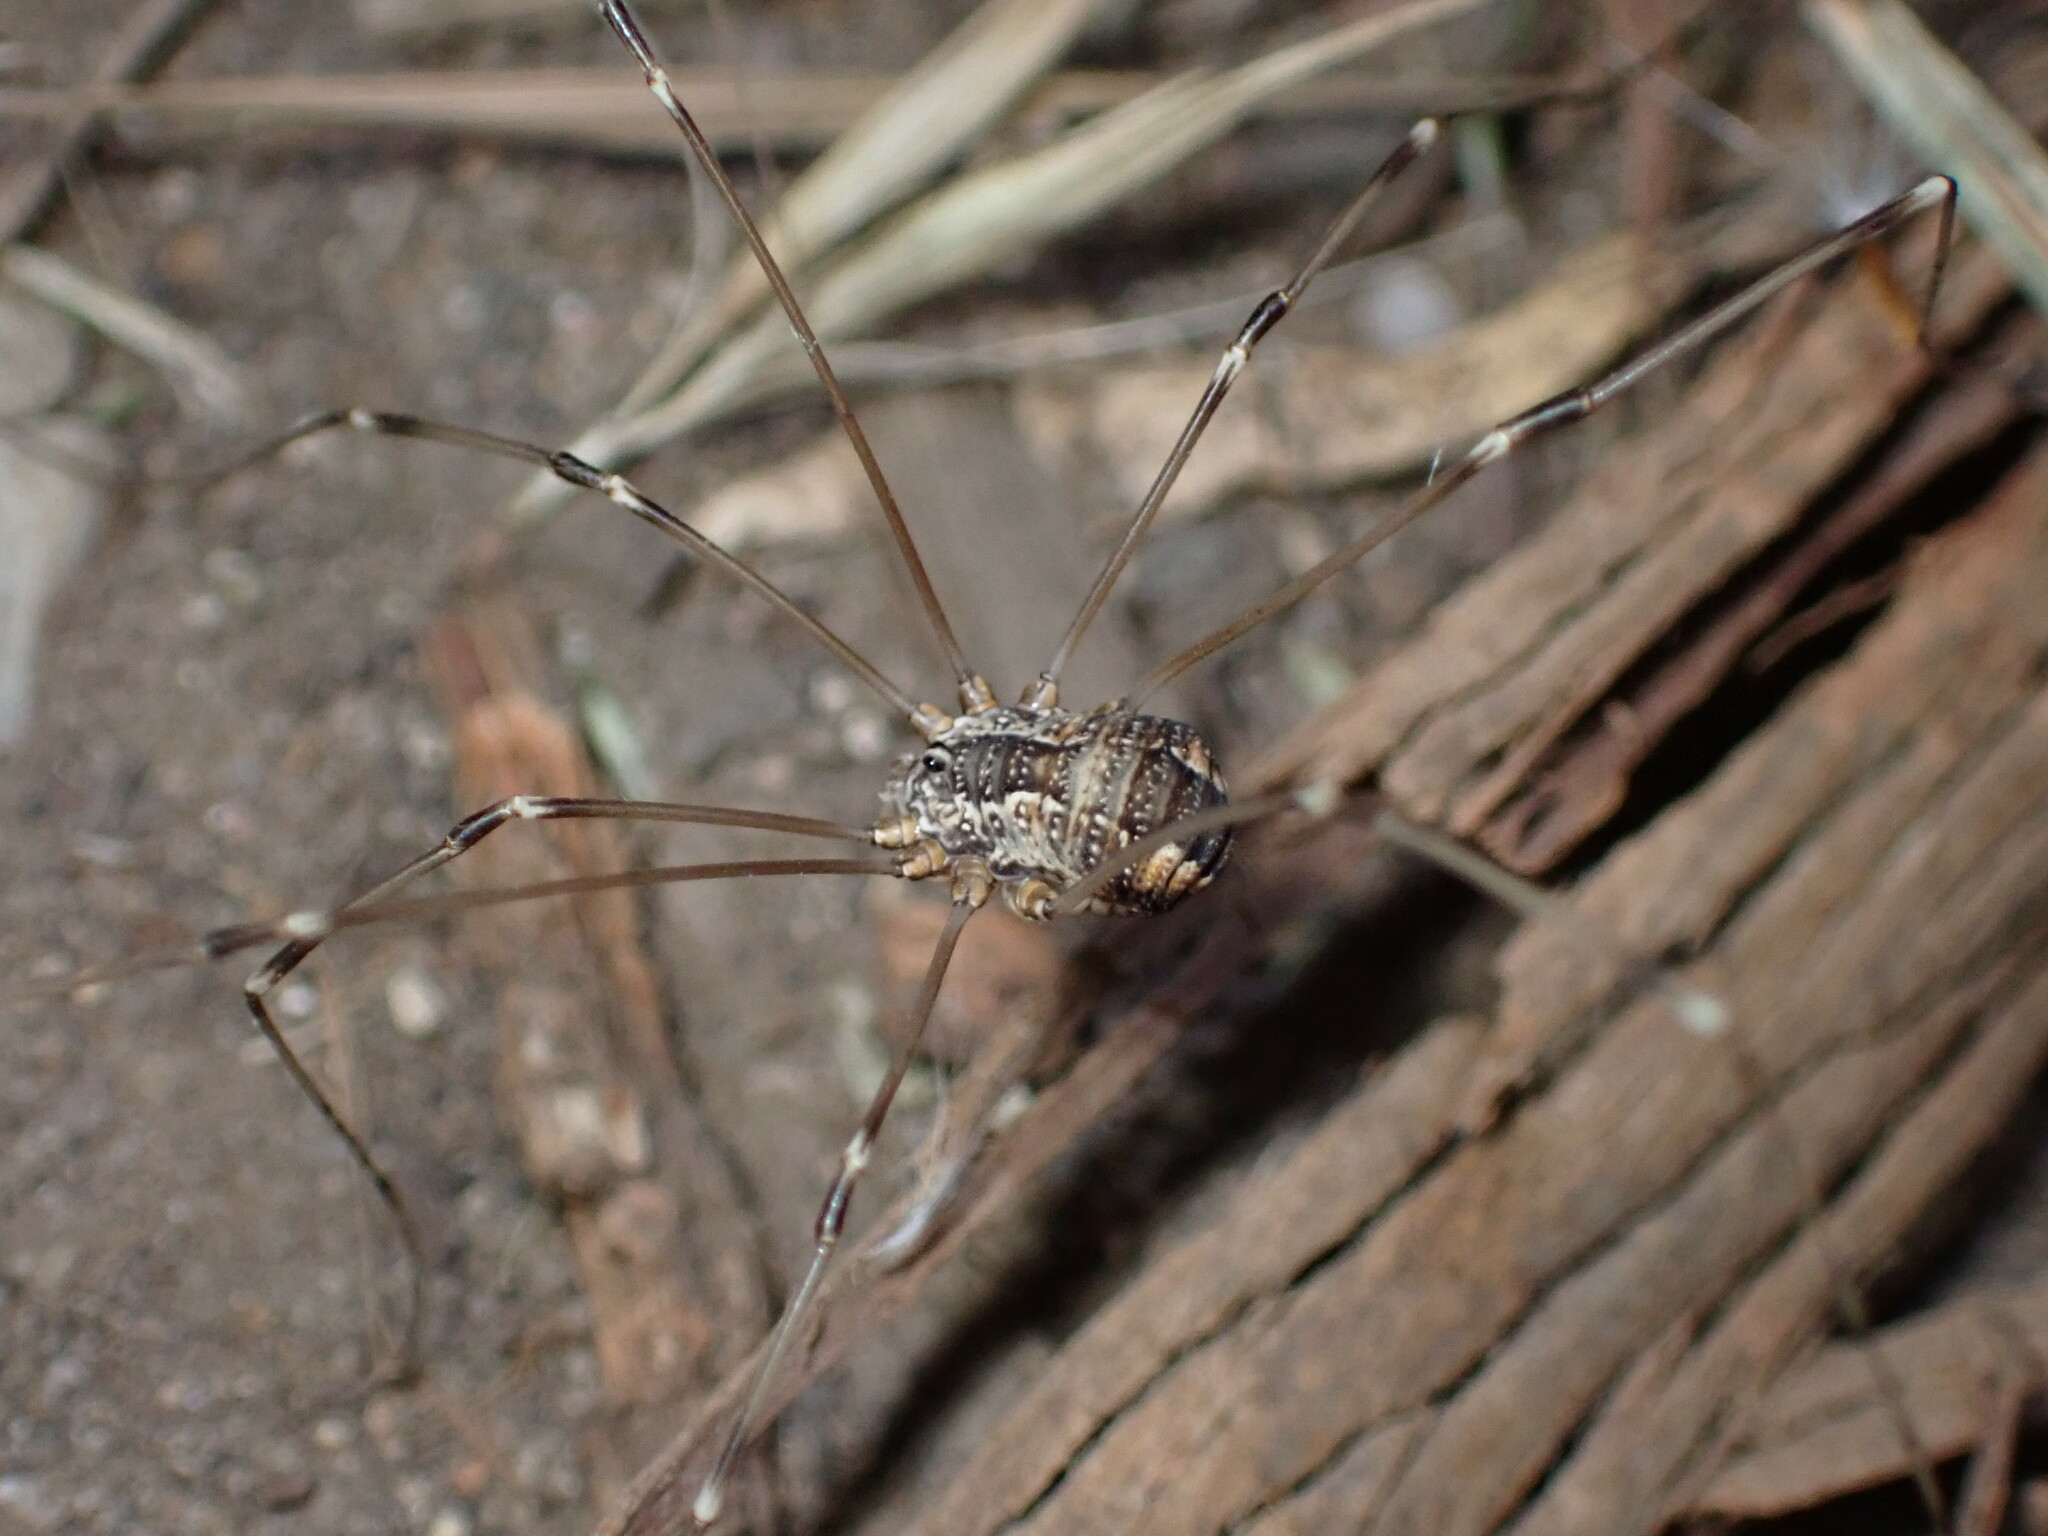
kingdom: Animalia
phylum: Arthropoda
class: Arachnida
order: Opiliones
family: Sclerosomatidae
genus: Leuronychus
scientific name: Leuronychus pacificus
